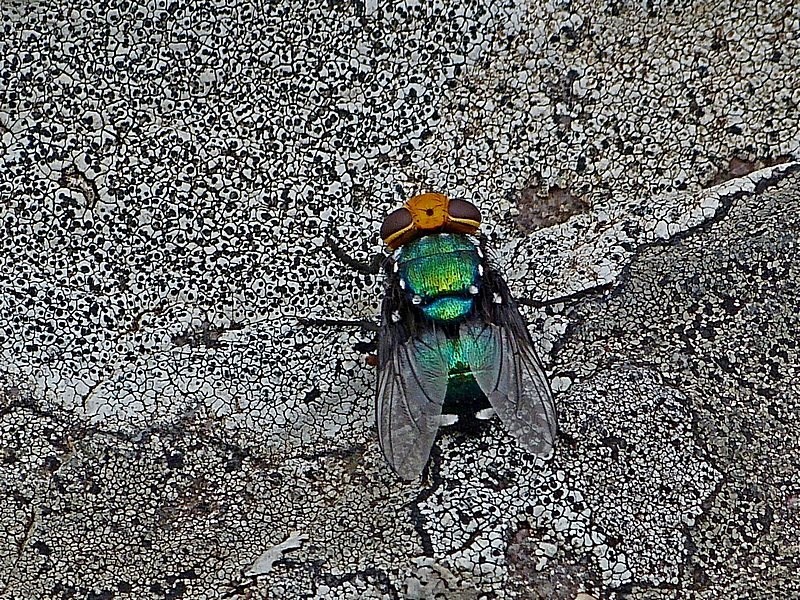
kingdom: Animalia
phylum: Arthropoda
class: Insecta
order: Diptera
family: Calliphoridae
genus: Amenia
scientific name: Amenia imperialis
